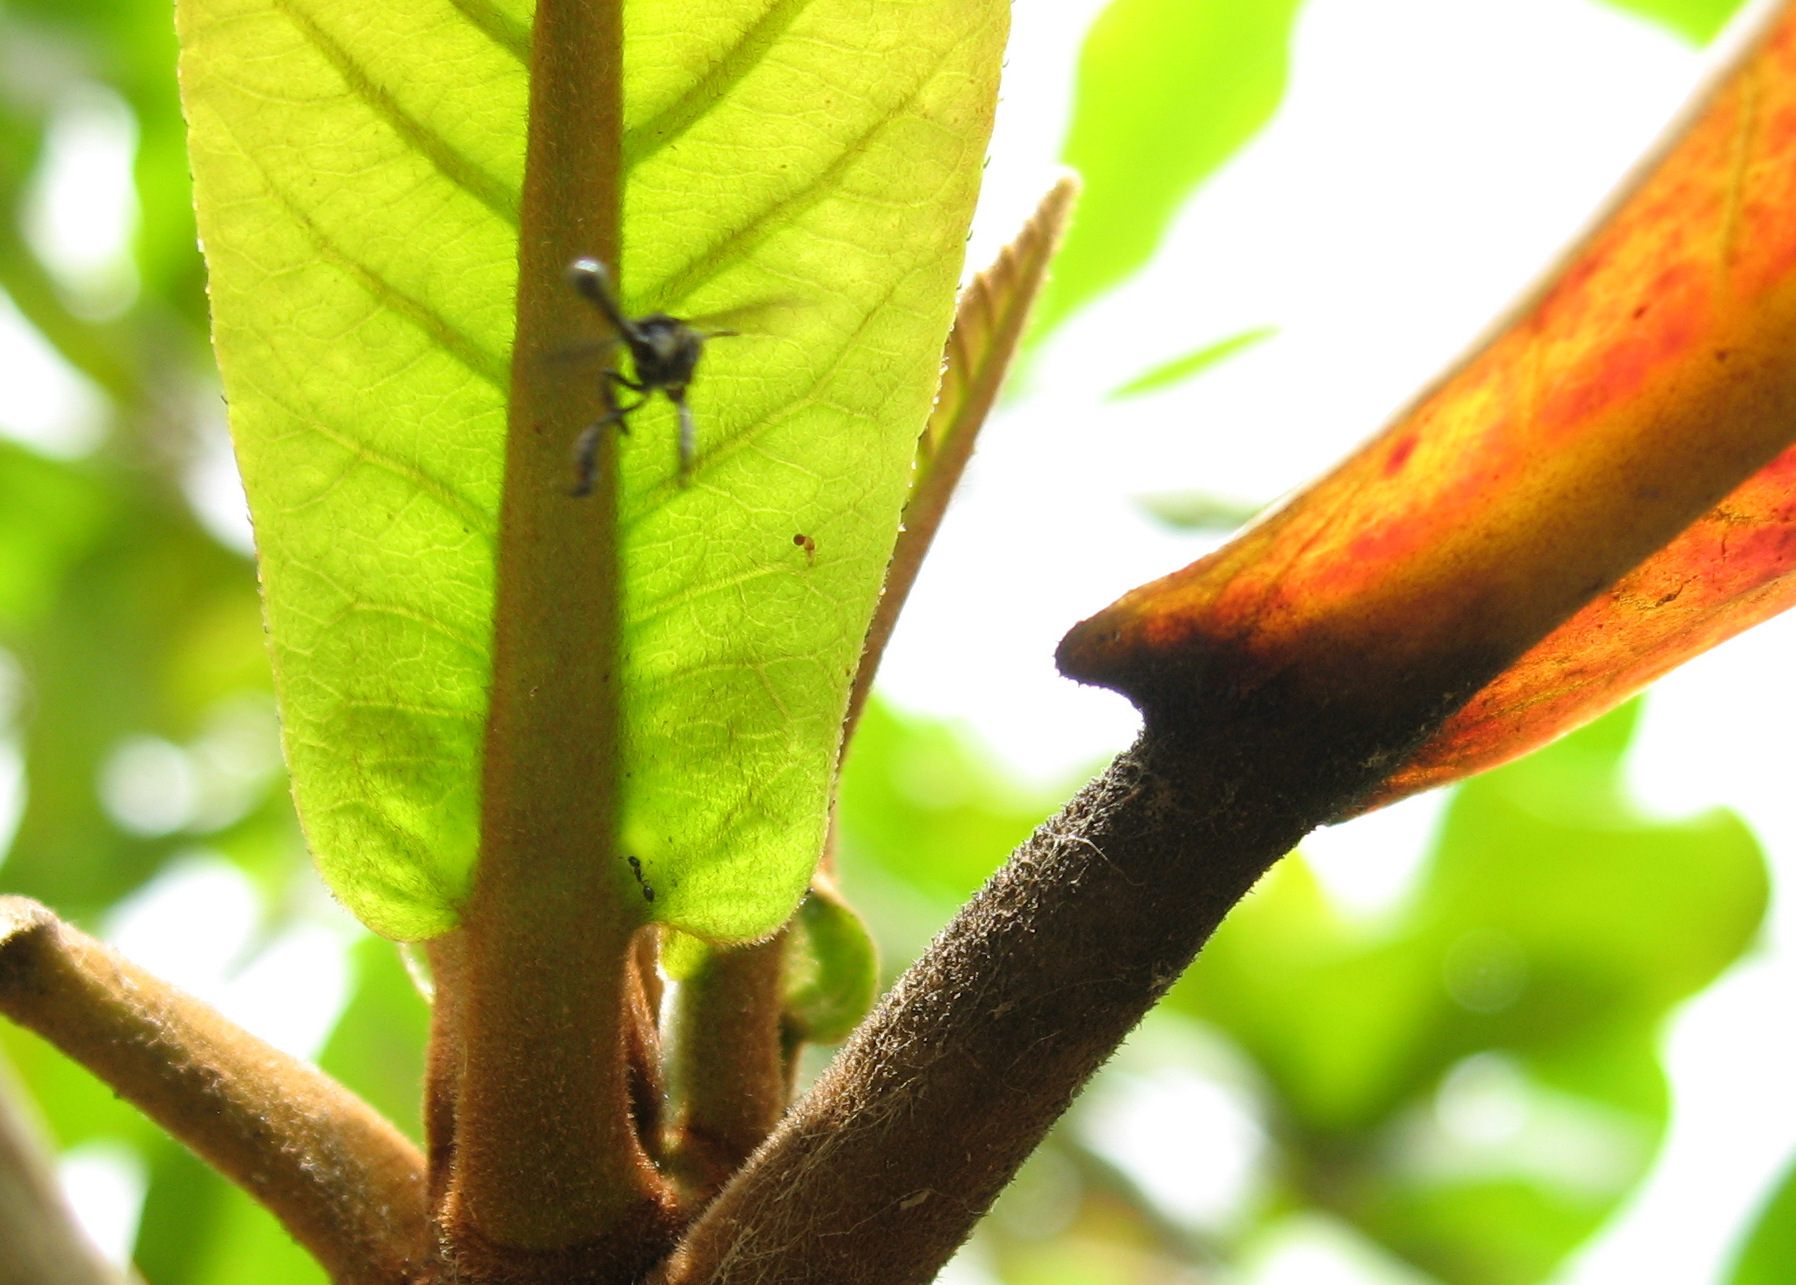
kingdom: Animalia
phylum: Arthropoda
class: Insecta
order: Hymenoptera
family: Apidae
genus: Dactylurina
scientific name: Dactylurina staudingeri
